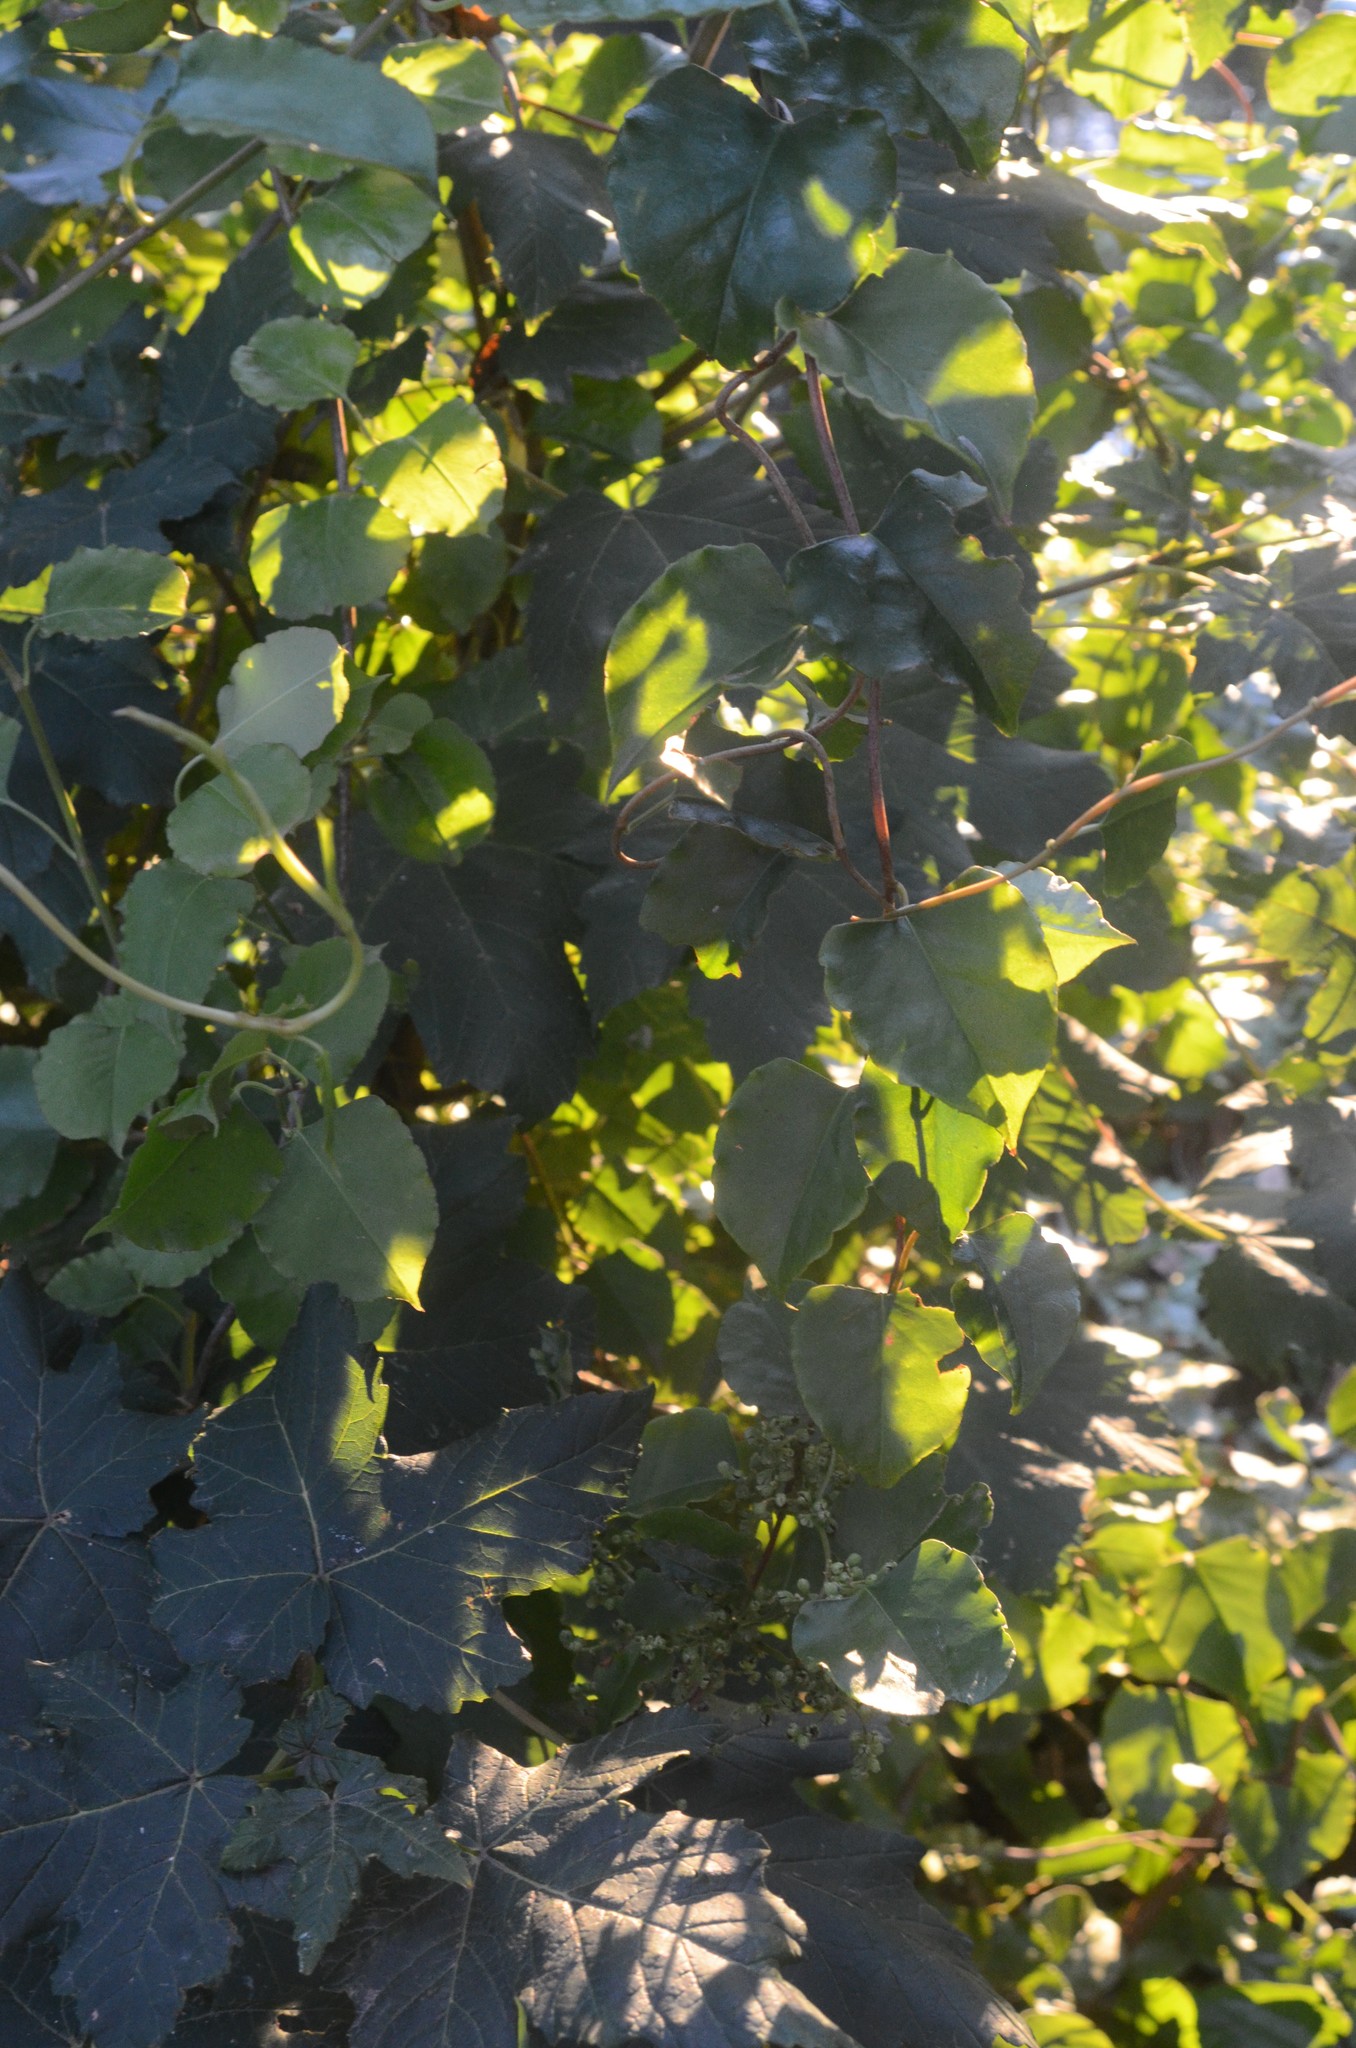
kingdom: Plantae
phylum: Tracheophyta
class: Magnoliopsida
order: Caryophyllales
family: Polygonaceae
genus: Muehlenbeckia
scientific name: Muehlenbeckia australis
